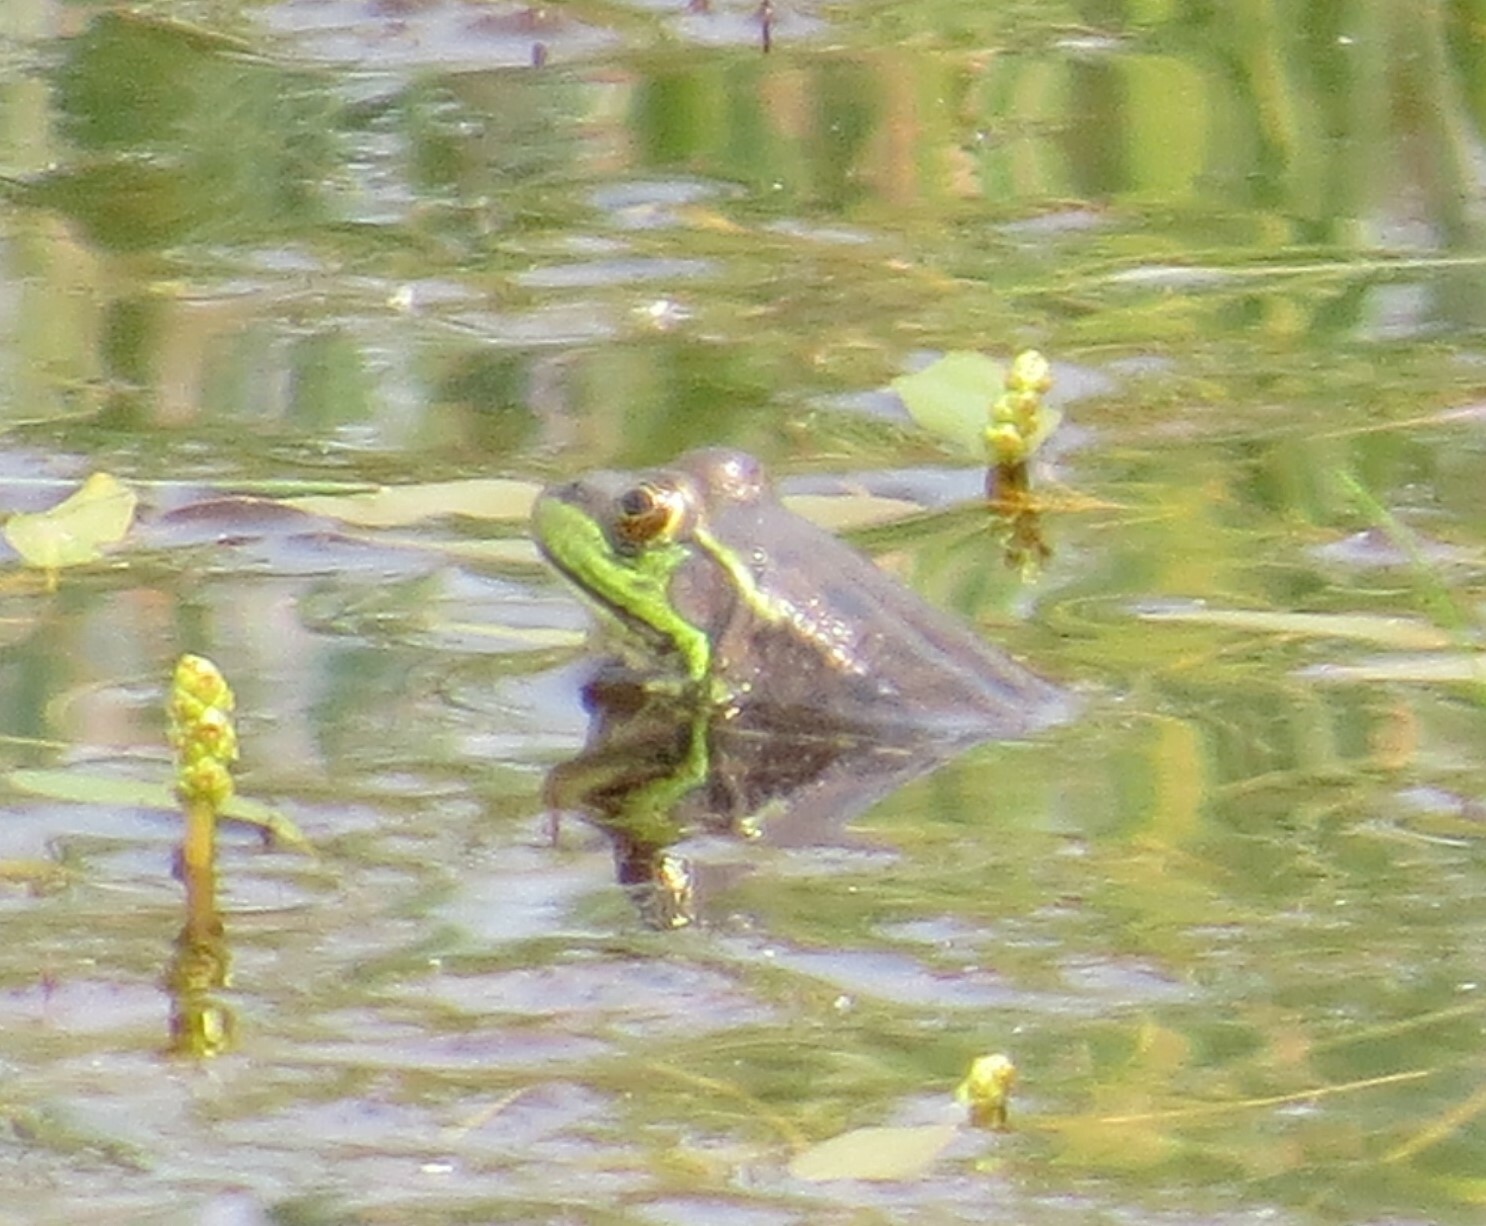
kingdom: Animalia
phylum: Chordata
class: Amphibia
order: Anura
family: Ranidae
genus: Lithobates
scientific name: Lithobates clamitans
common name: Green frog
